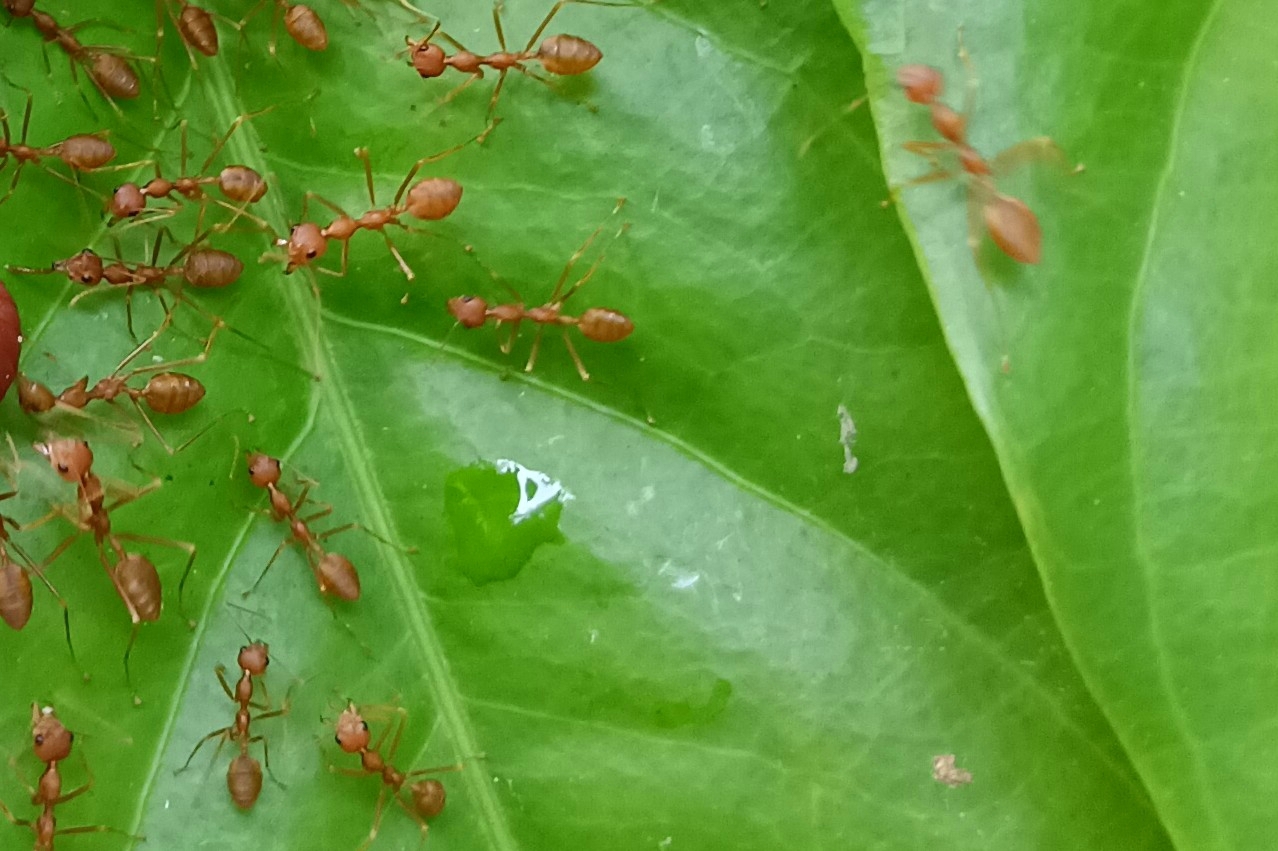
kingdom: Animalia
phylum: Arthropoda
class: Insecta
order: Hymenoptera
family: Formicidae
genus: Oecophylla
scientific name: Oecophylla smaragdina
